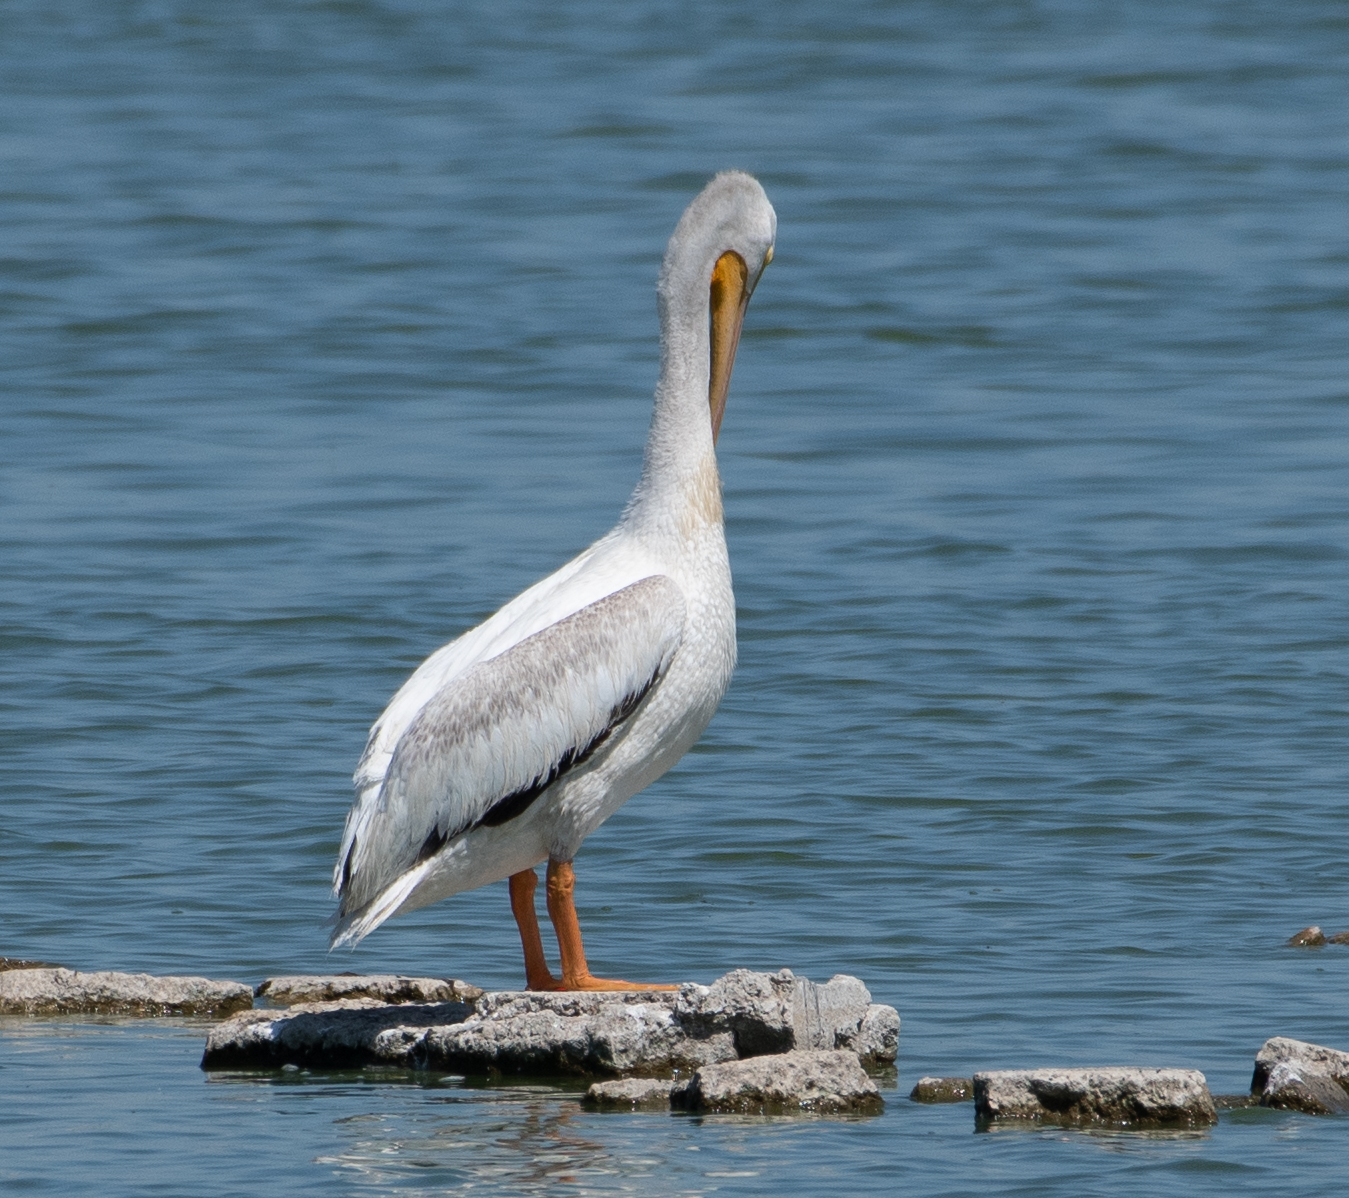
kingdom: Animalia
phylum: Chordata
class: Aves
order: Pelecaniformes
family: Pelecanidae
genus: Pelecanus
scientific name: Pelecanus erythrorhynchos
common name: American white pelican
